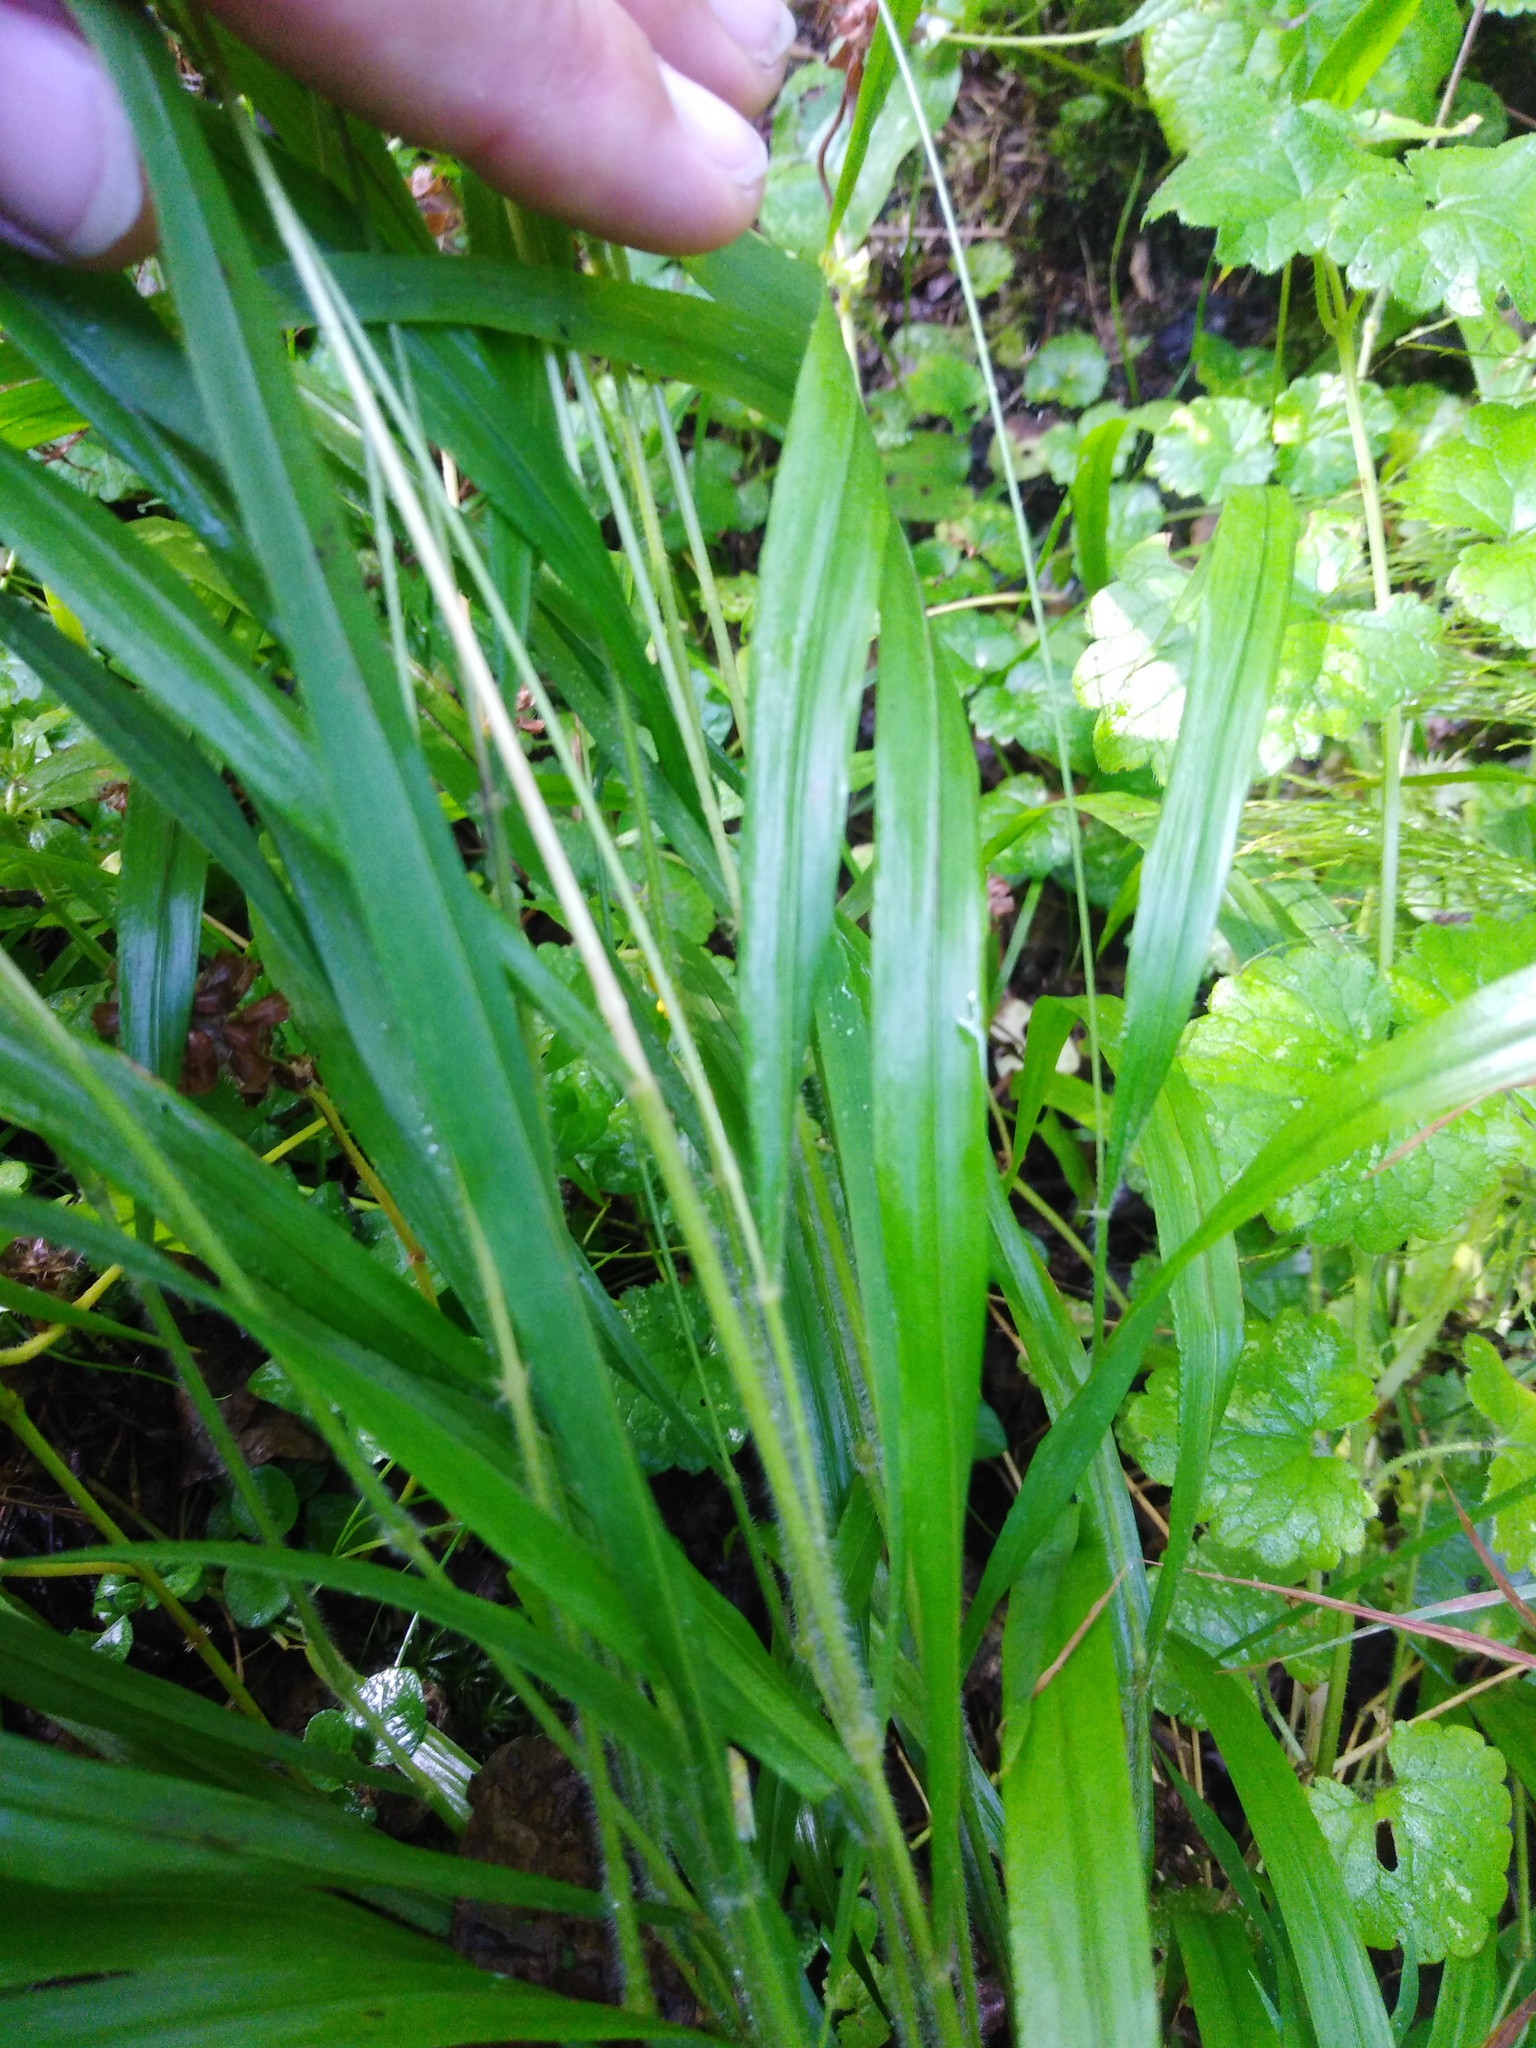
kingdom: Plantae
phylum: Tracheophyta
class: Liliopsida
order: Poales
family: Poaceae
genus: Brachypodium
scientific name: Brachypodium sylvaticum
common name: False-brome
